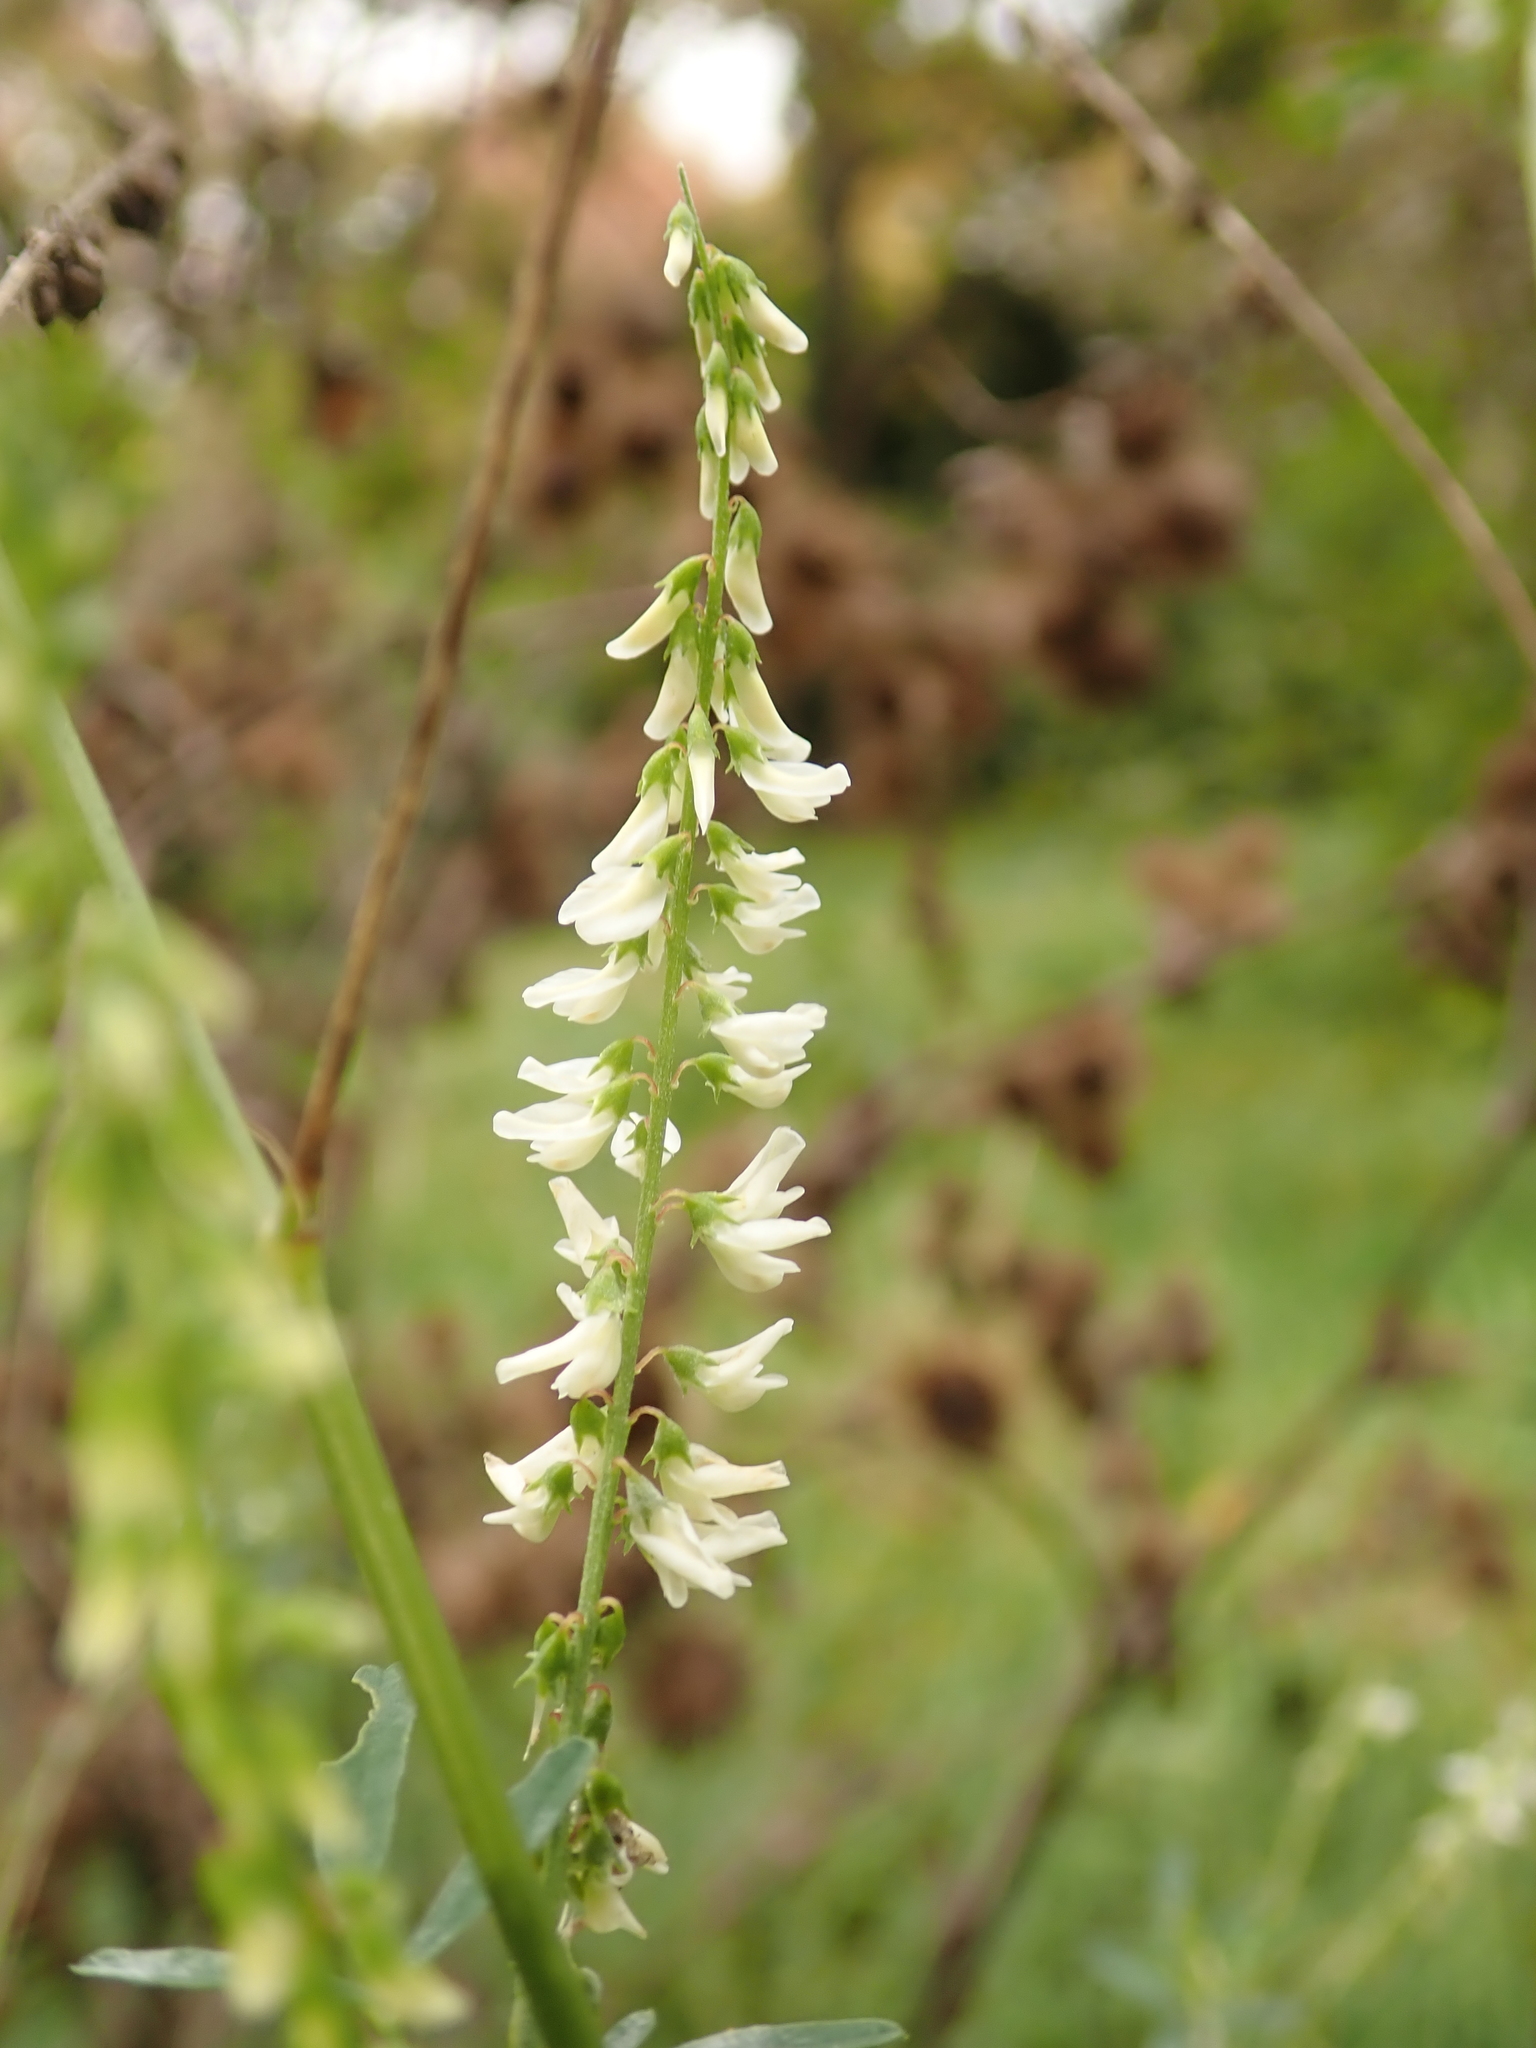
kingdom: Plantae
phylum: Tracheophyta
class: Magnoliopsida
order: Fabales
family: Fabaceae
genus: Melilotus
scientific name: Melilotus albus
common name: White melilot
